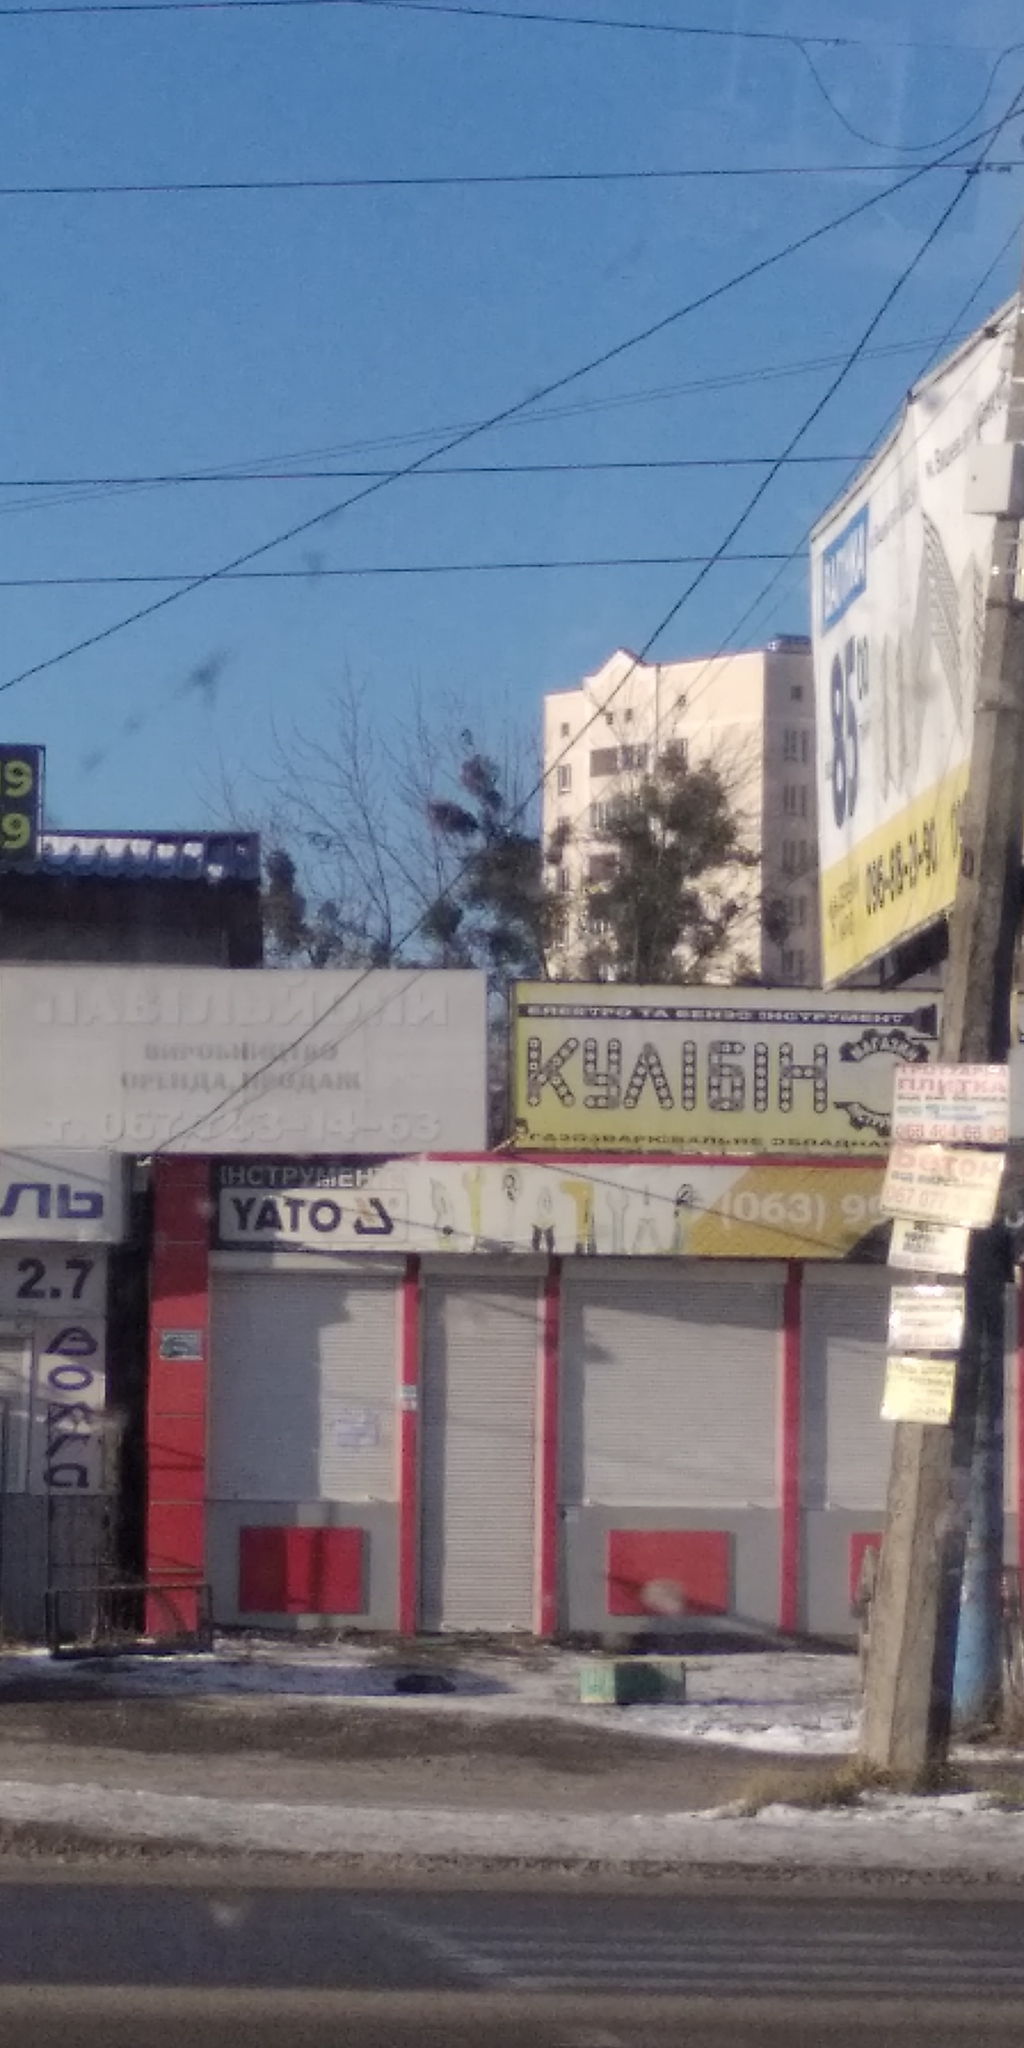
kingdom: Plantae
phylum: Tracheophyta
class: Magnoliopsida
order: Santalales
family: Viscaceae
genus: Viscum
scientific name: Viscum album
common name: Mistletoe
